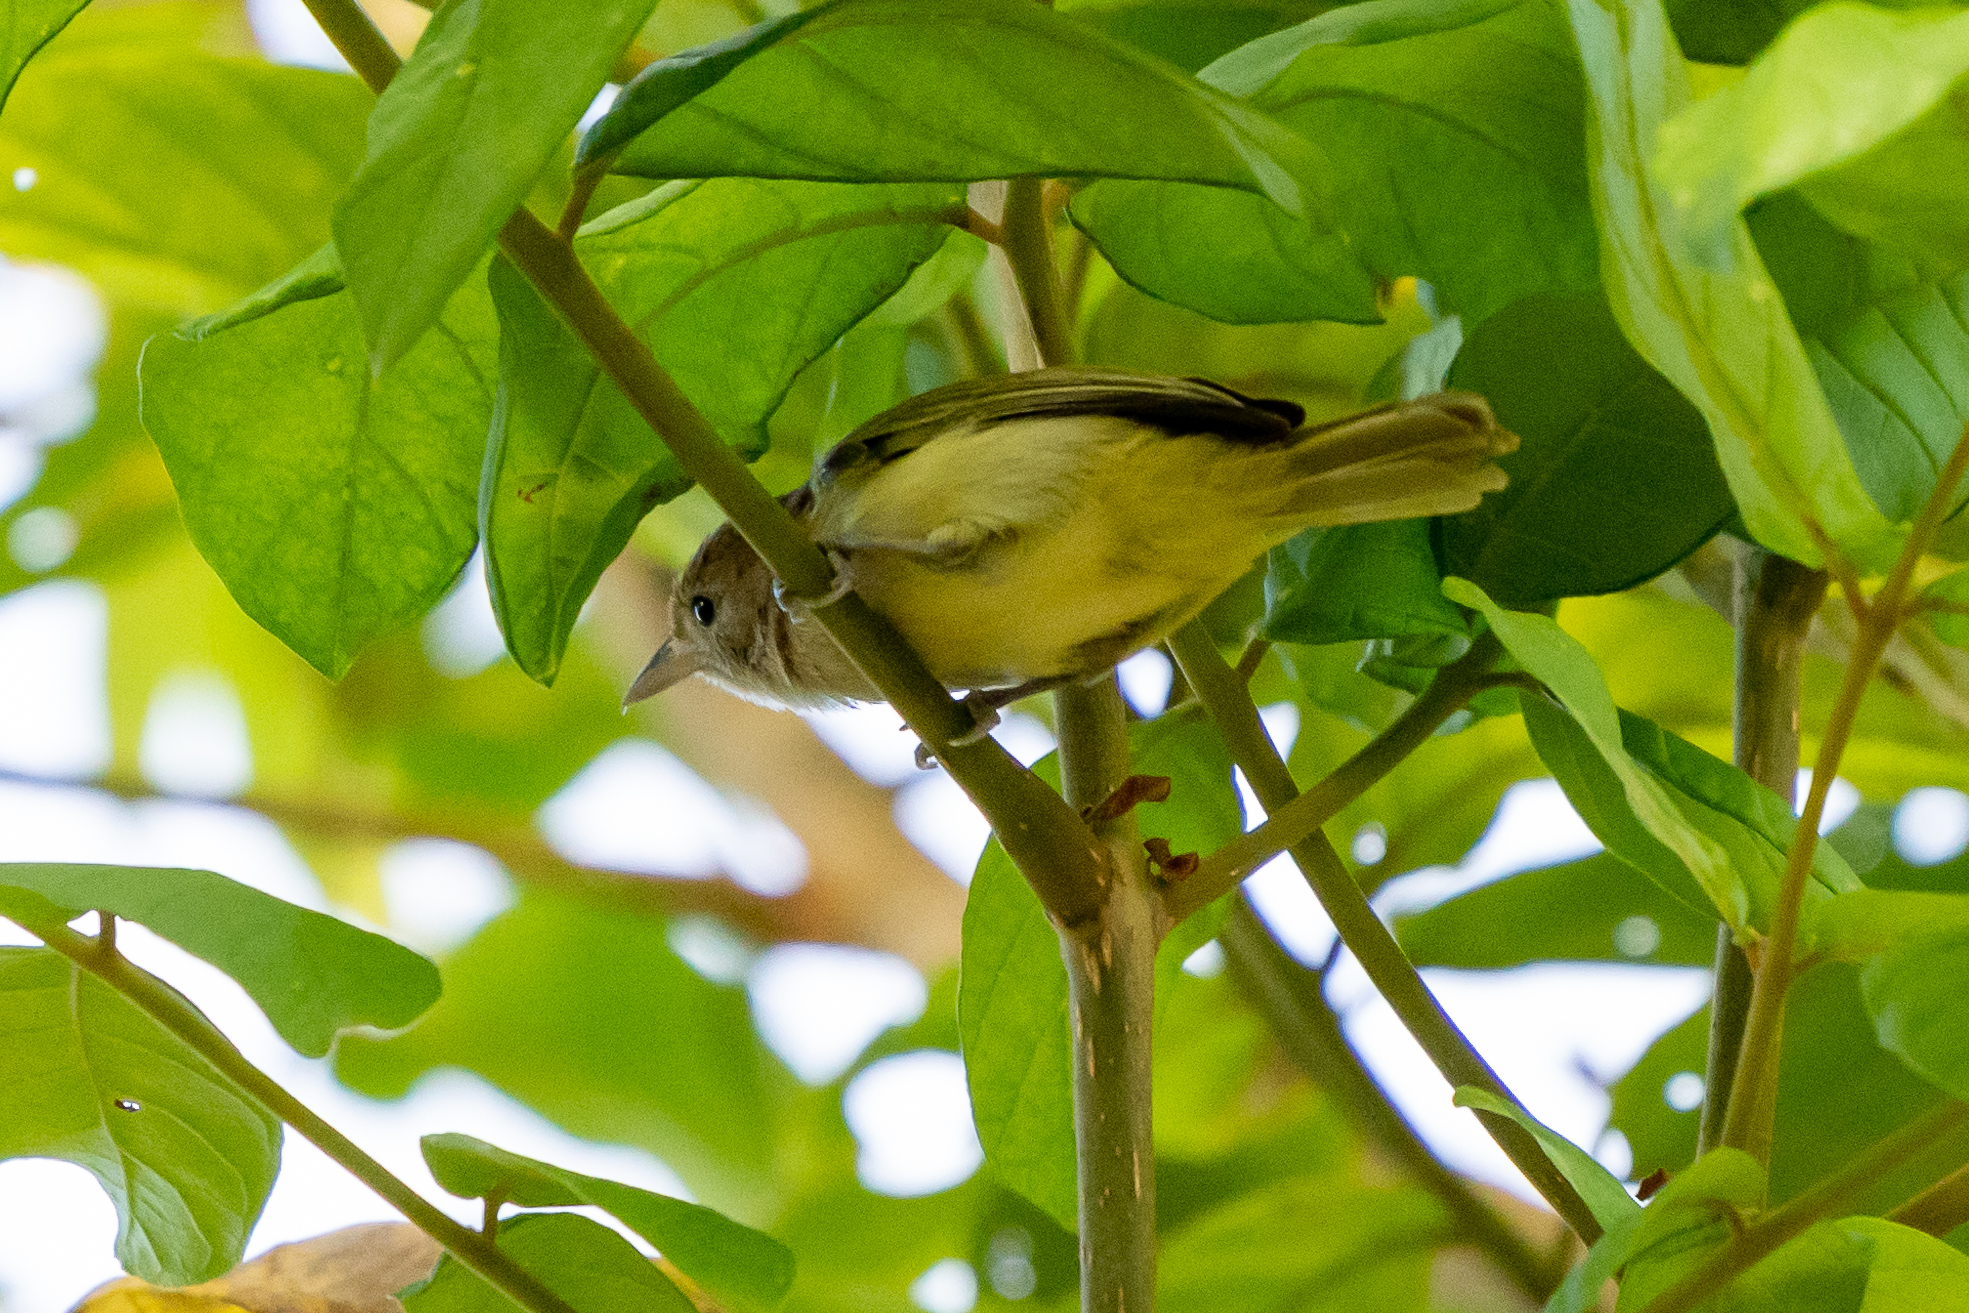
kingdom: Animalia
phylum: Chordata
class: Aves
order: Passeriformes
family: Vireonidae
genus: Hylophilus
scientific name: Hylophilus aurantiifrons
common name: Golden-fronted greenlet
